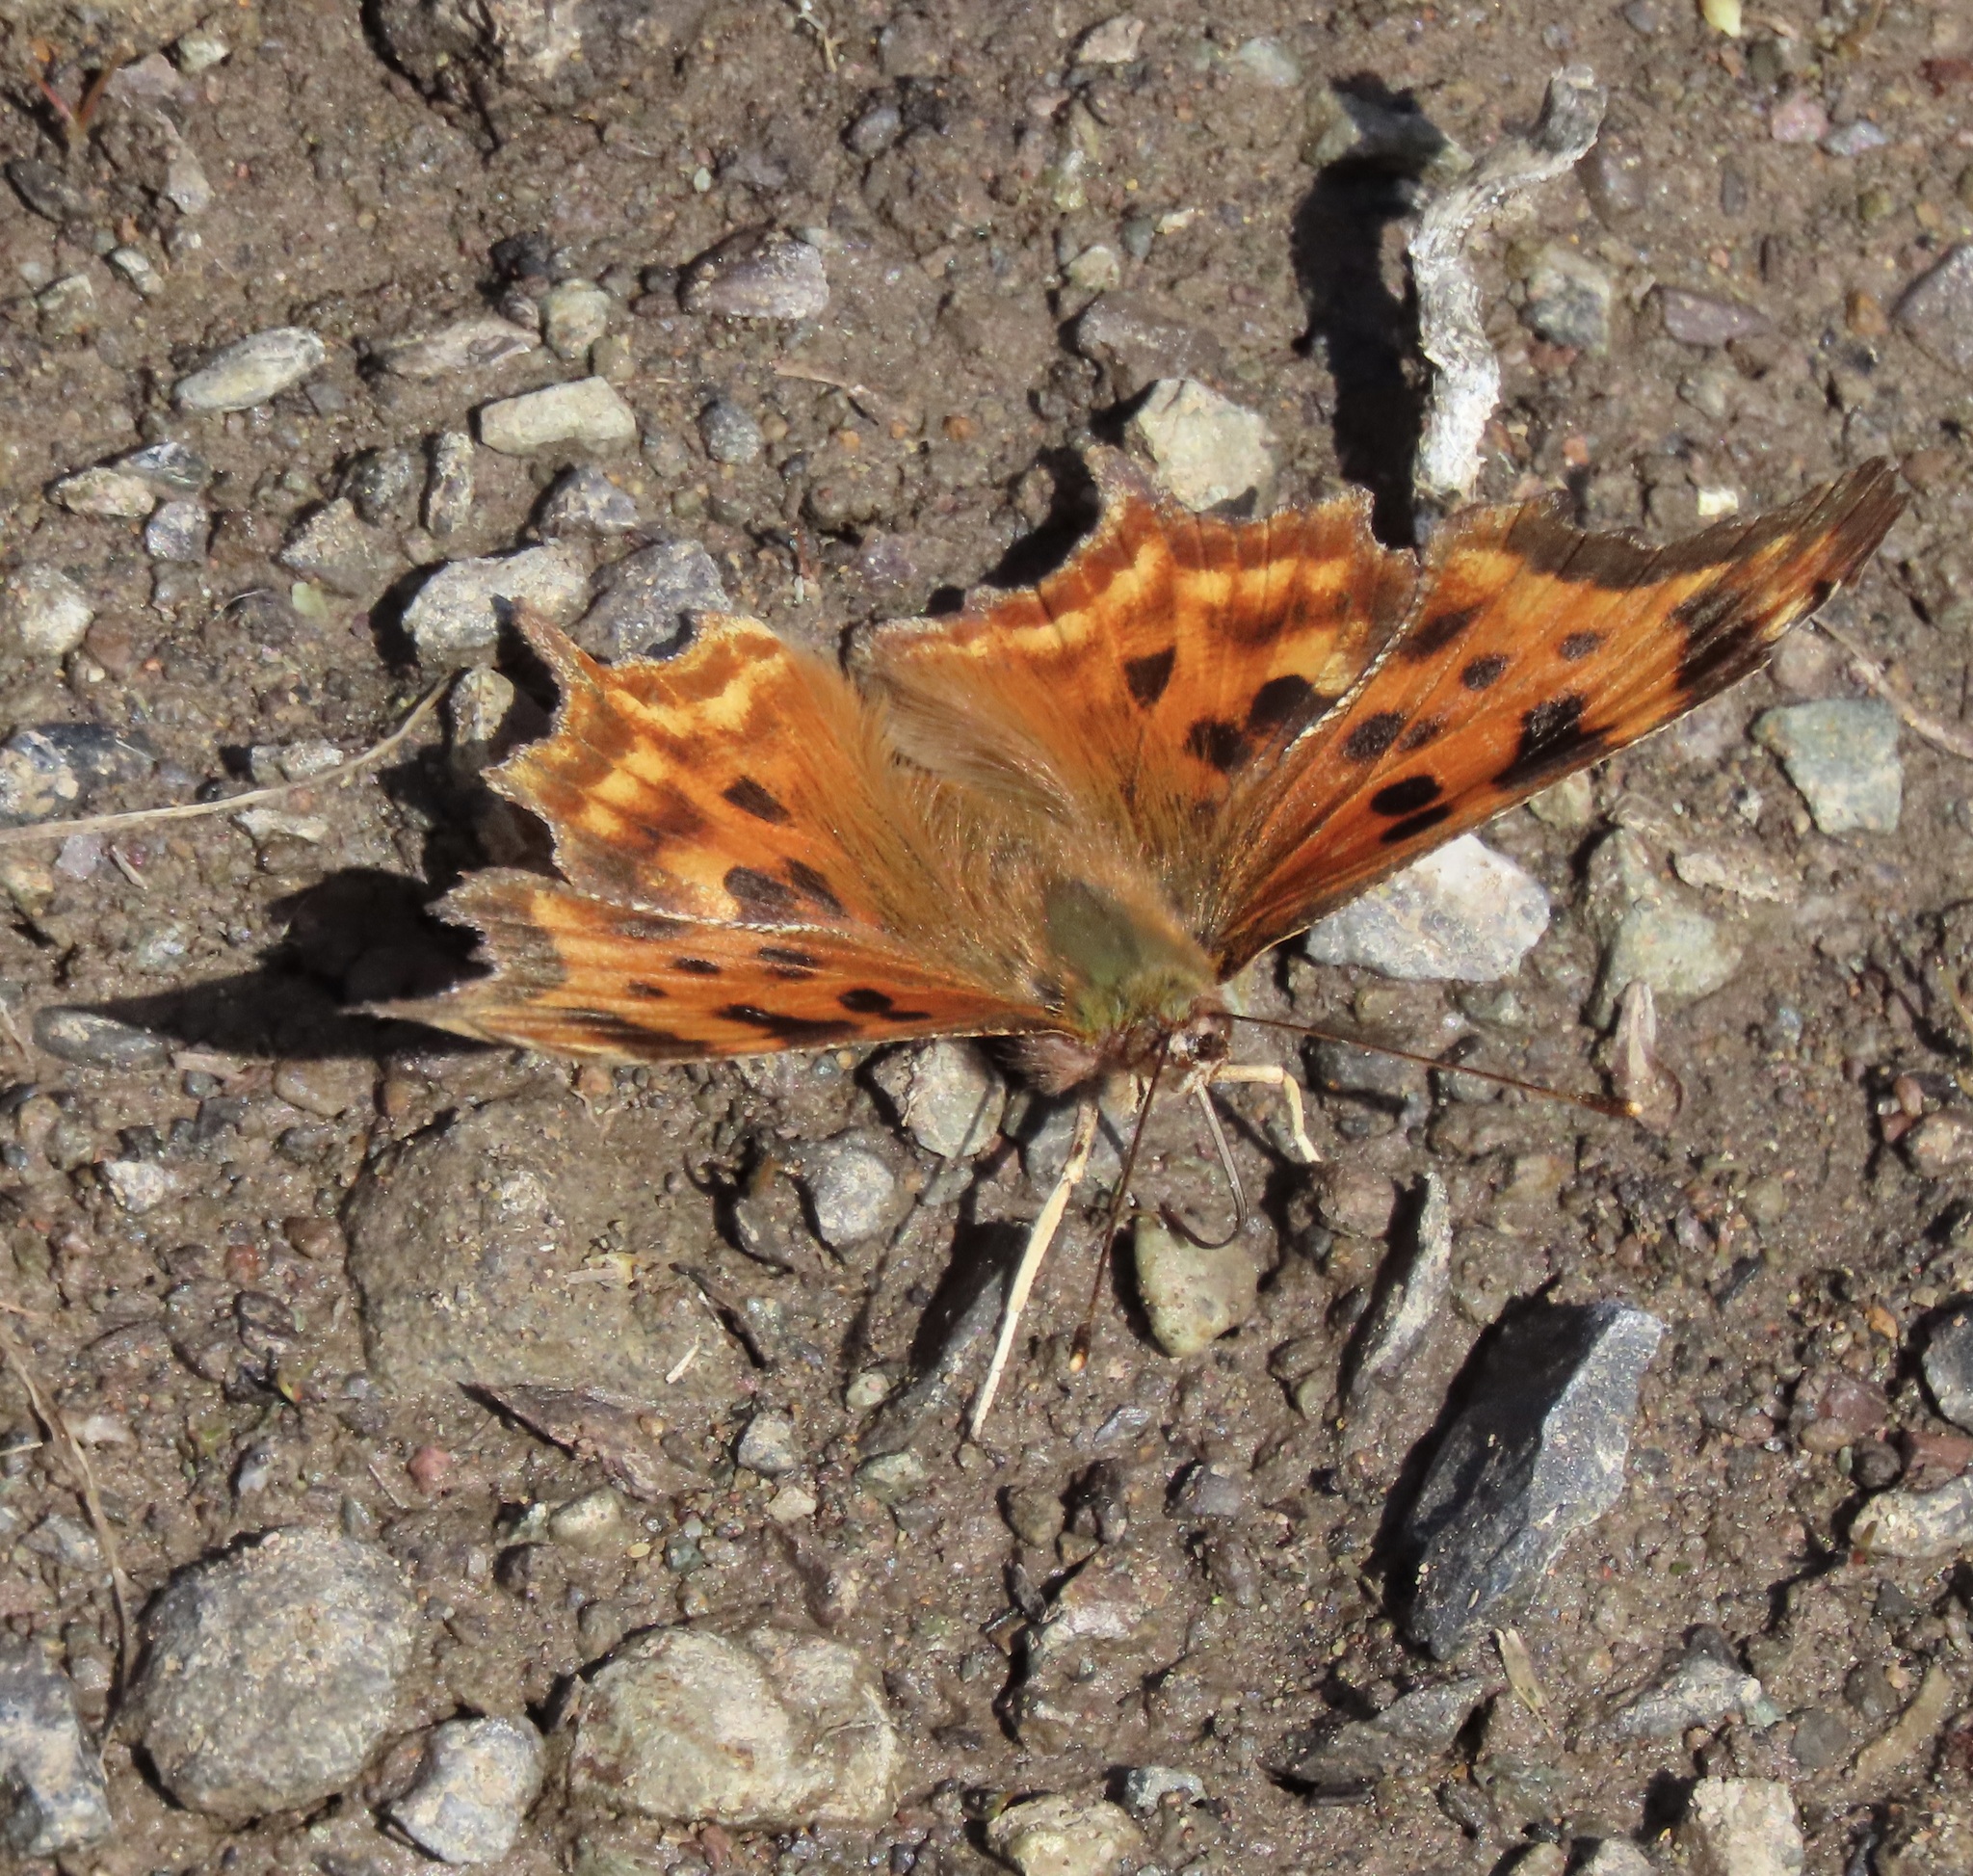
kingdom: Animalia
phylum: Arthropoda
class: Insecta
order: Lepidoptera
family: Nymphalidae
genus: Polygonia
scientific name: Polygonia satyrus
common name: Satyr angle wing
